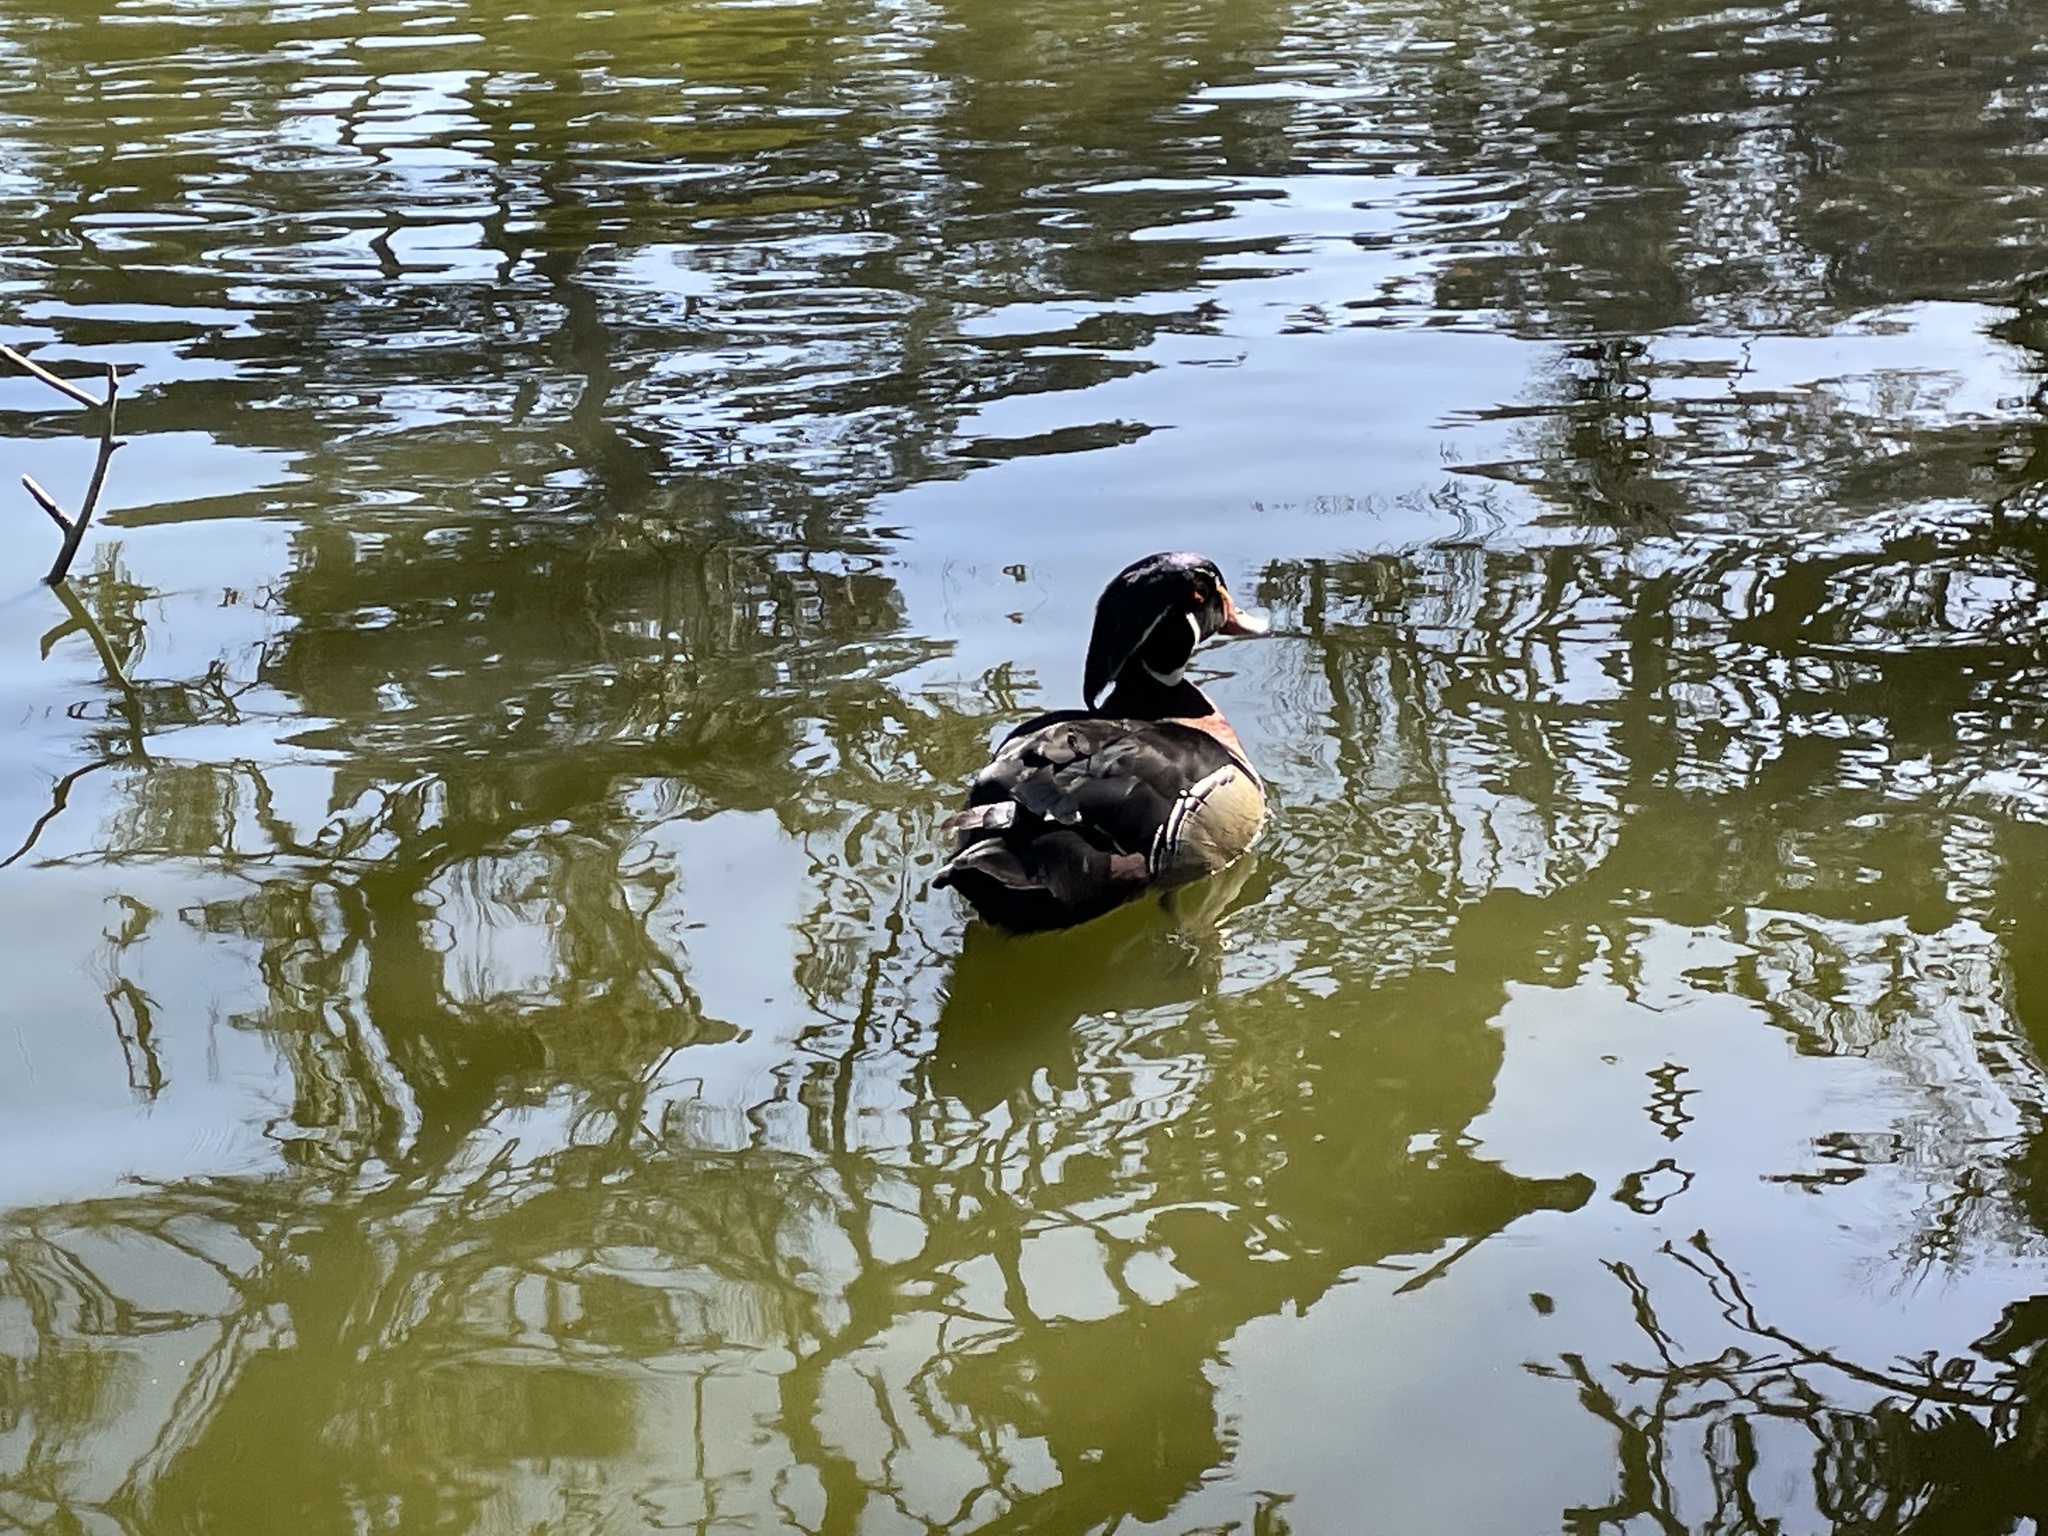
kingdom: Animalia
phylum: Chordata
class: Aves
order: Anseriformes
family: Anatidae
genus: Aix
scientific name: Aix sponsa
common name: Wood duck
